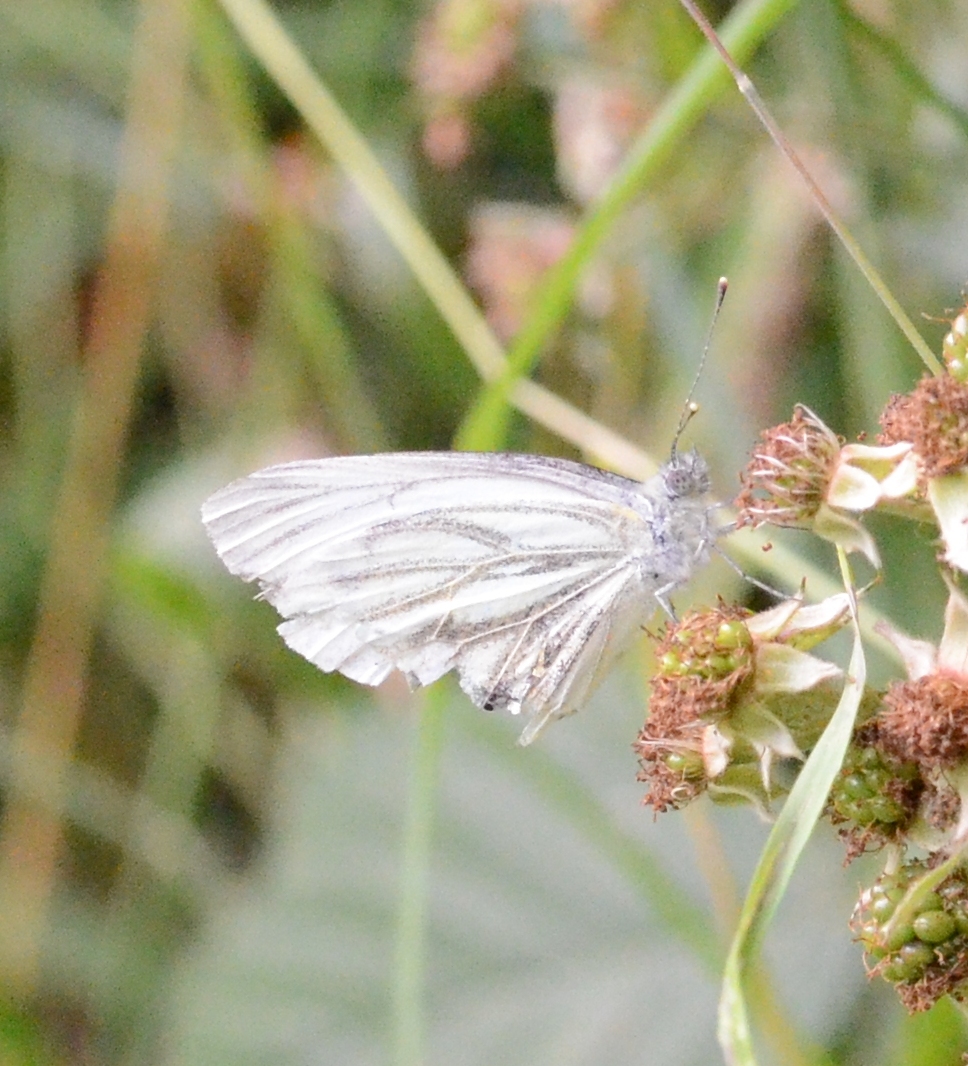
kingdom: Animalia
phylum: Arthropoda
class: Insecta
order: Lepidoptera
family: Pieridae
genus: Pieris
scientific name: Pieris napi
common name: Green-veined white
